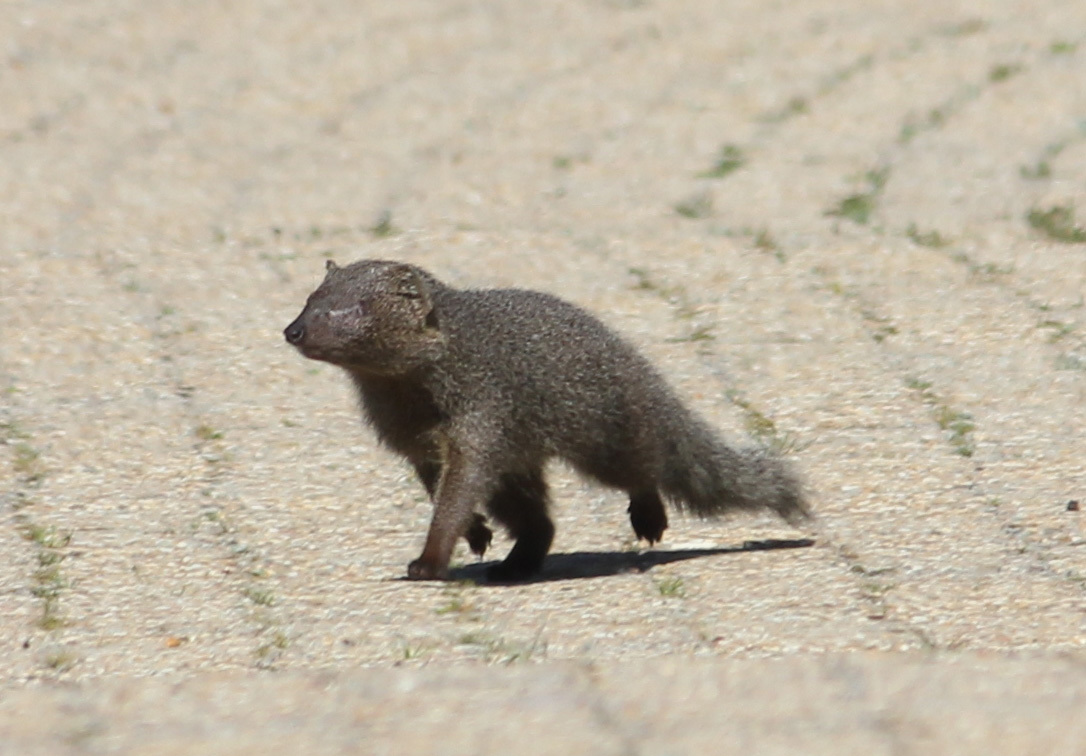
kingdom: Animalia
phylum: Chordata
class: Mammalia
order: Carnivora
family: Herpestidae
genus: Galerella
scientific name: Galerella pulverulenta
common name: Cape gray mongoose
